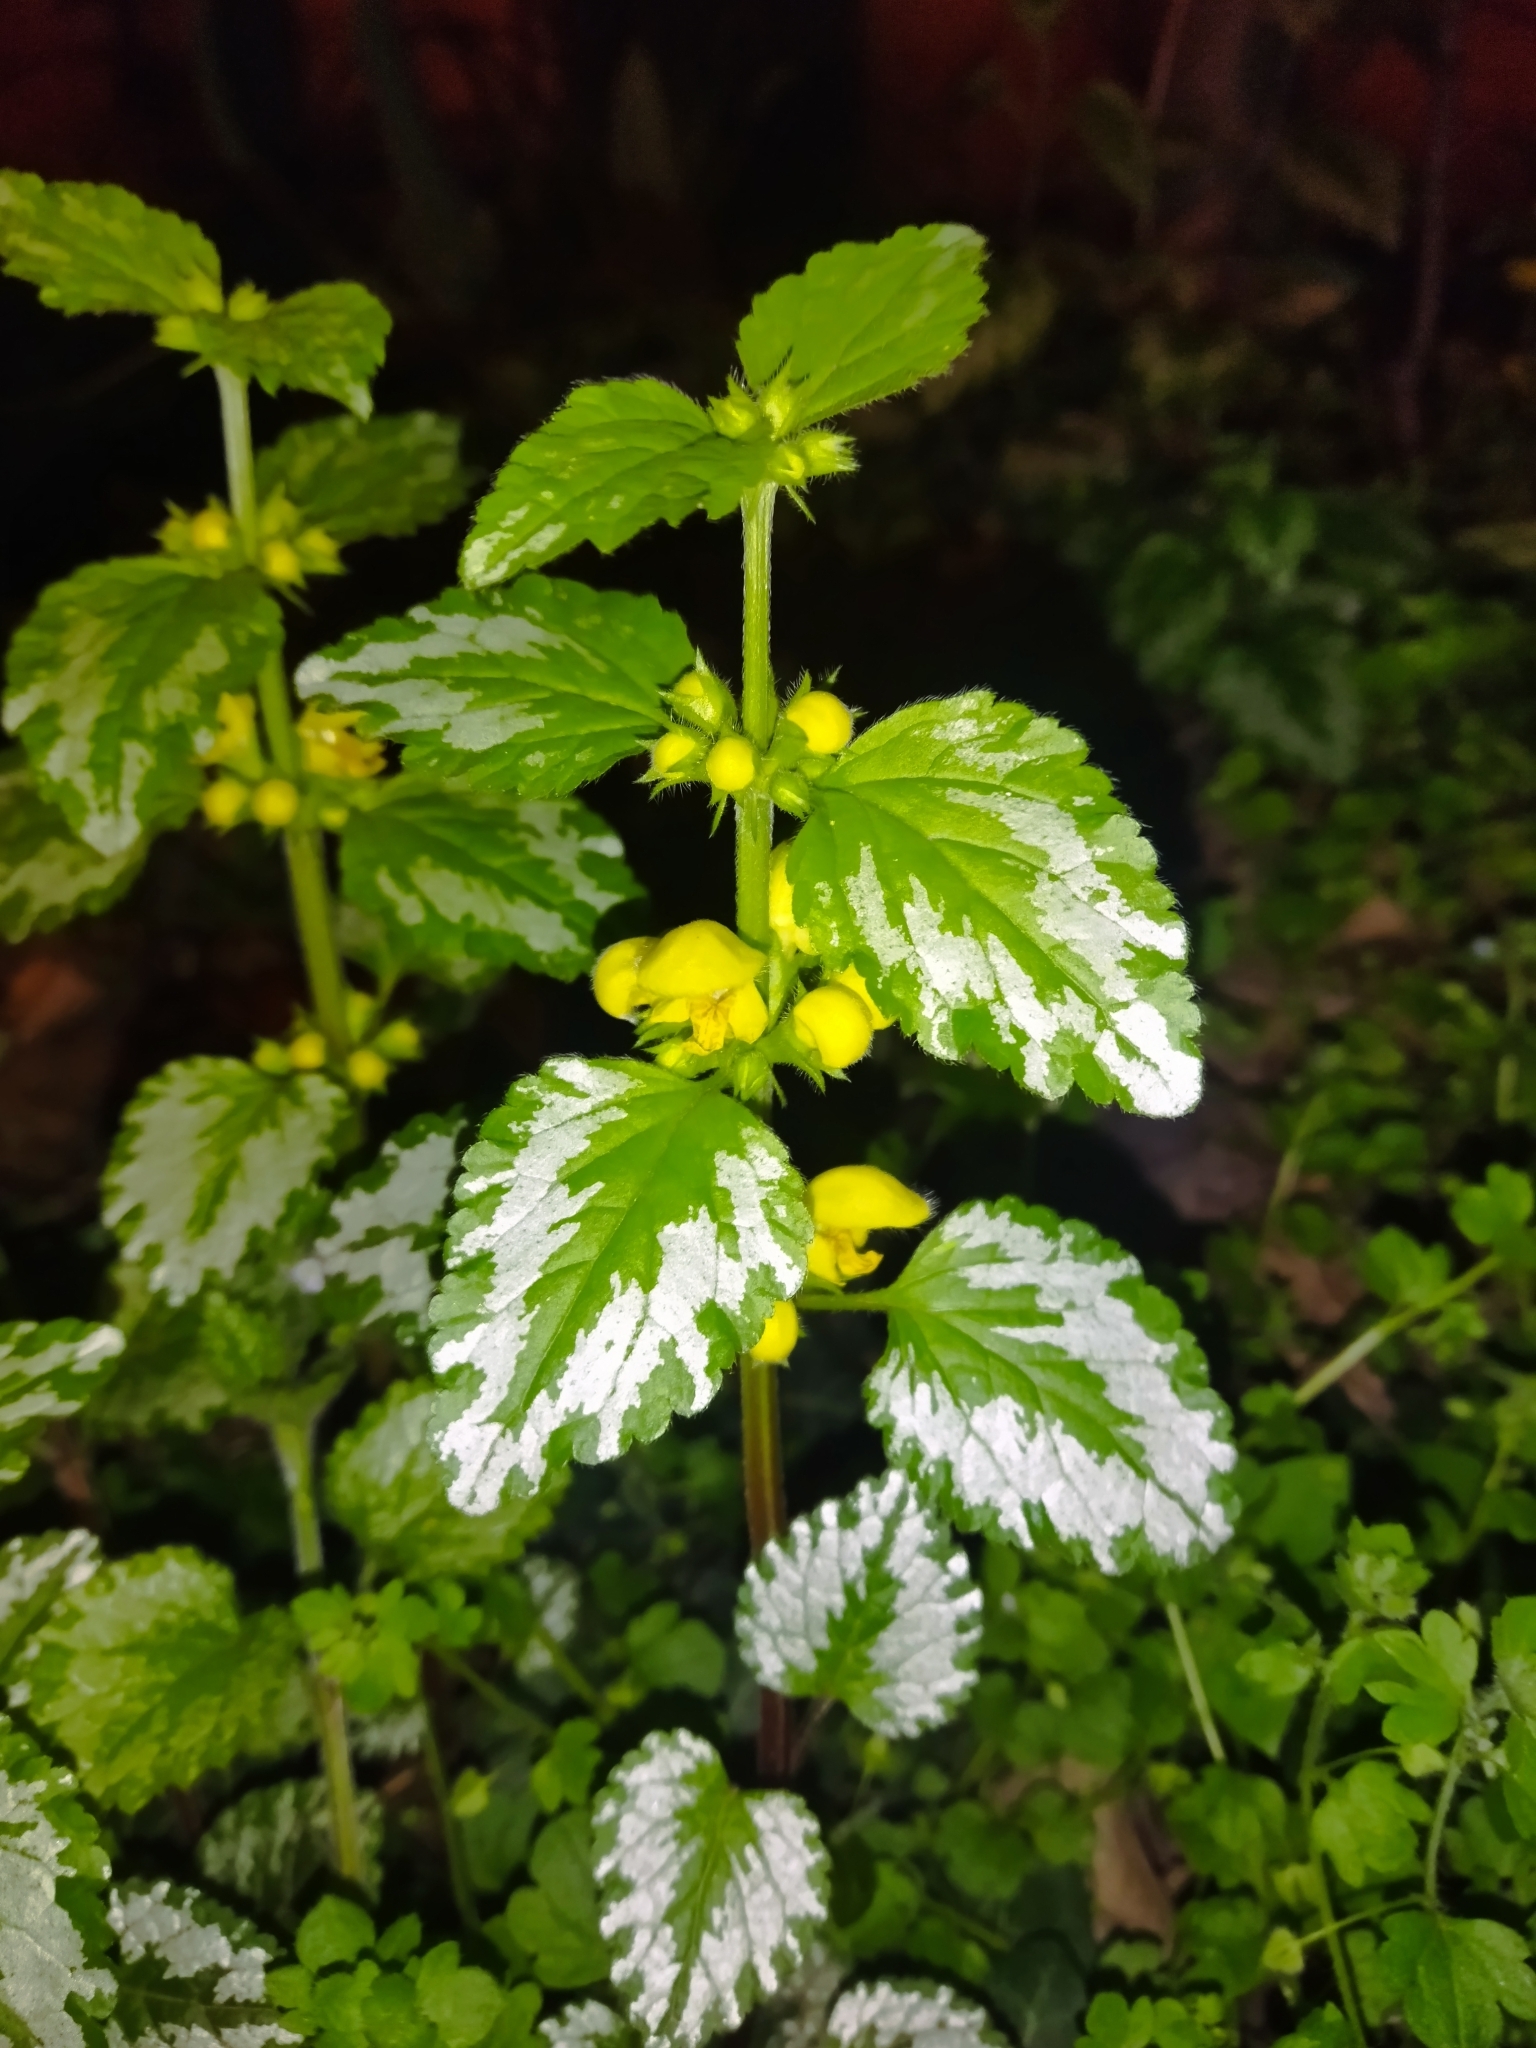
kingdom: Plantae
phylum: Tracheophyta
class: Magnoliopsida
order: Lamiales
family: Lamiaceae
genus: Lamium
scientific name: Lamium galeobdolon
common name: Yellow archangel
